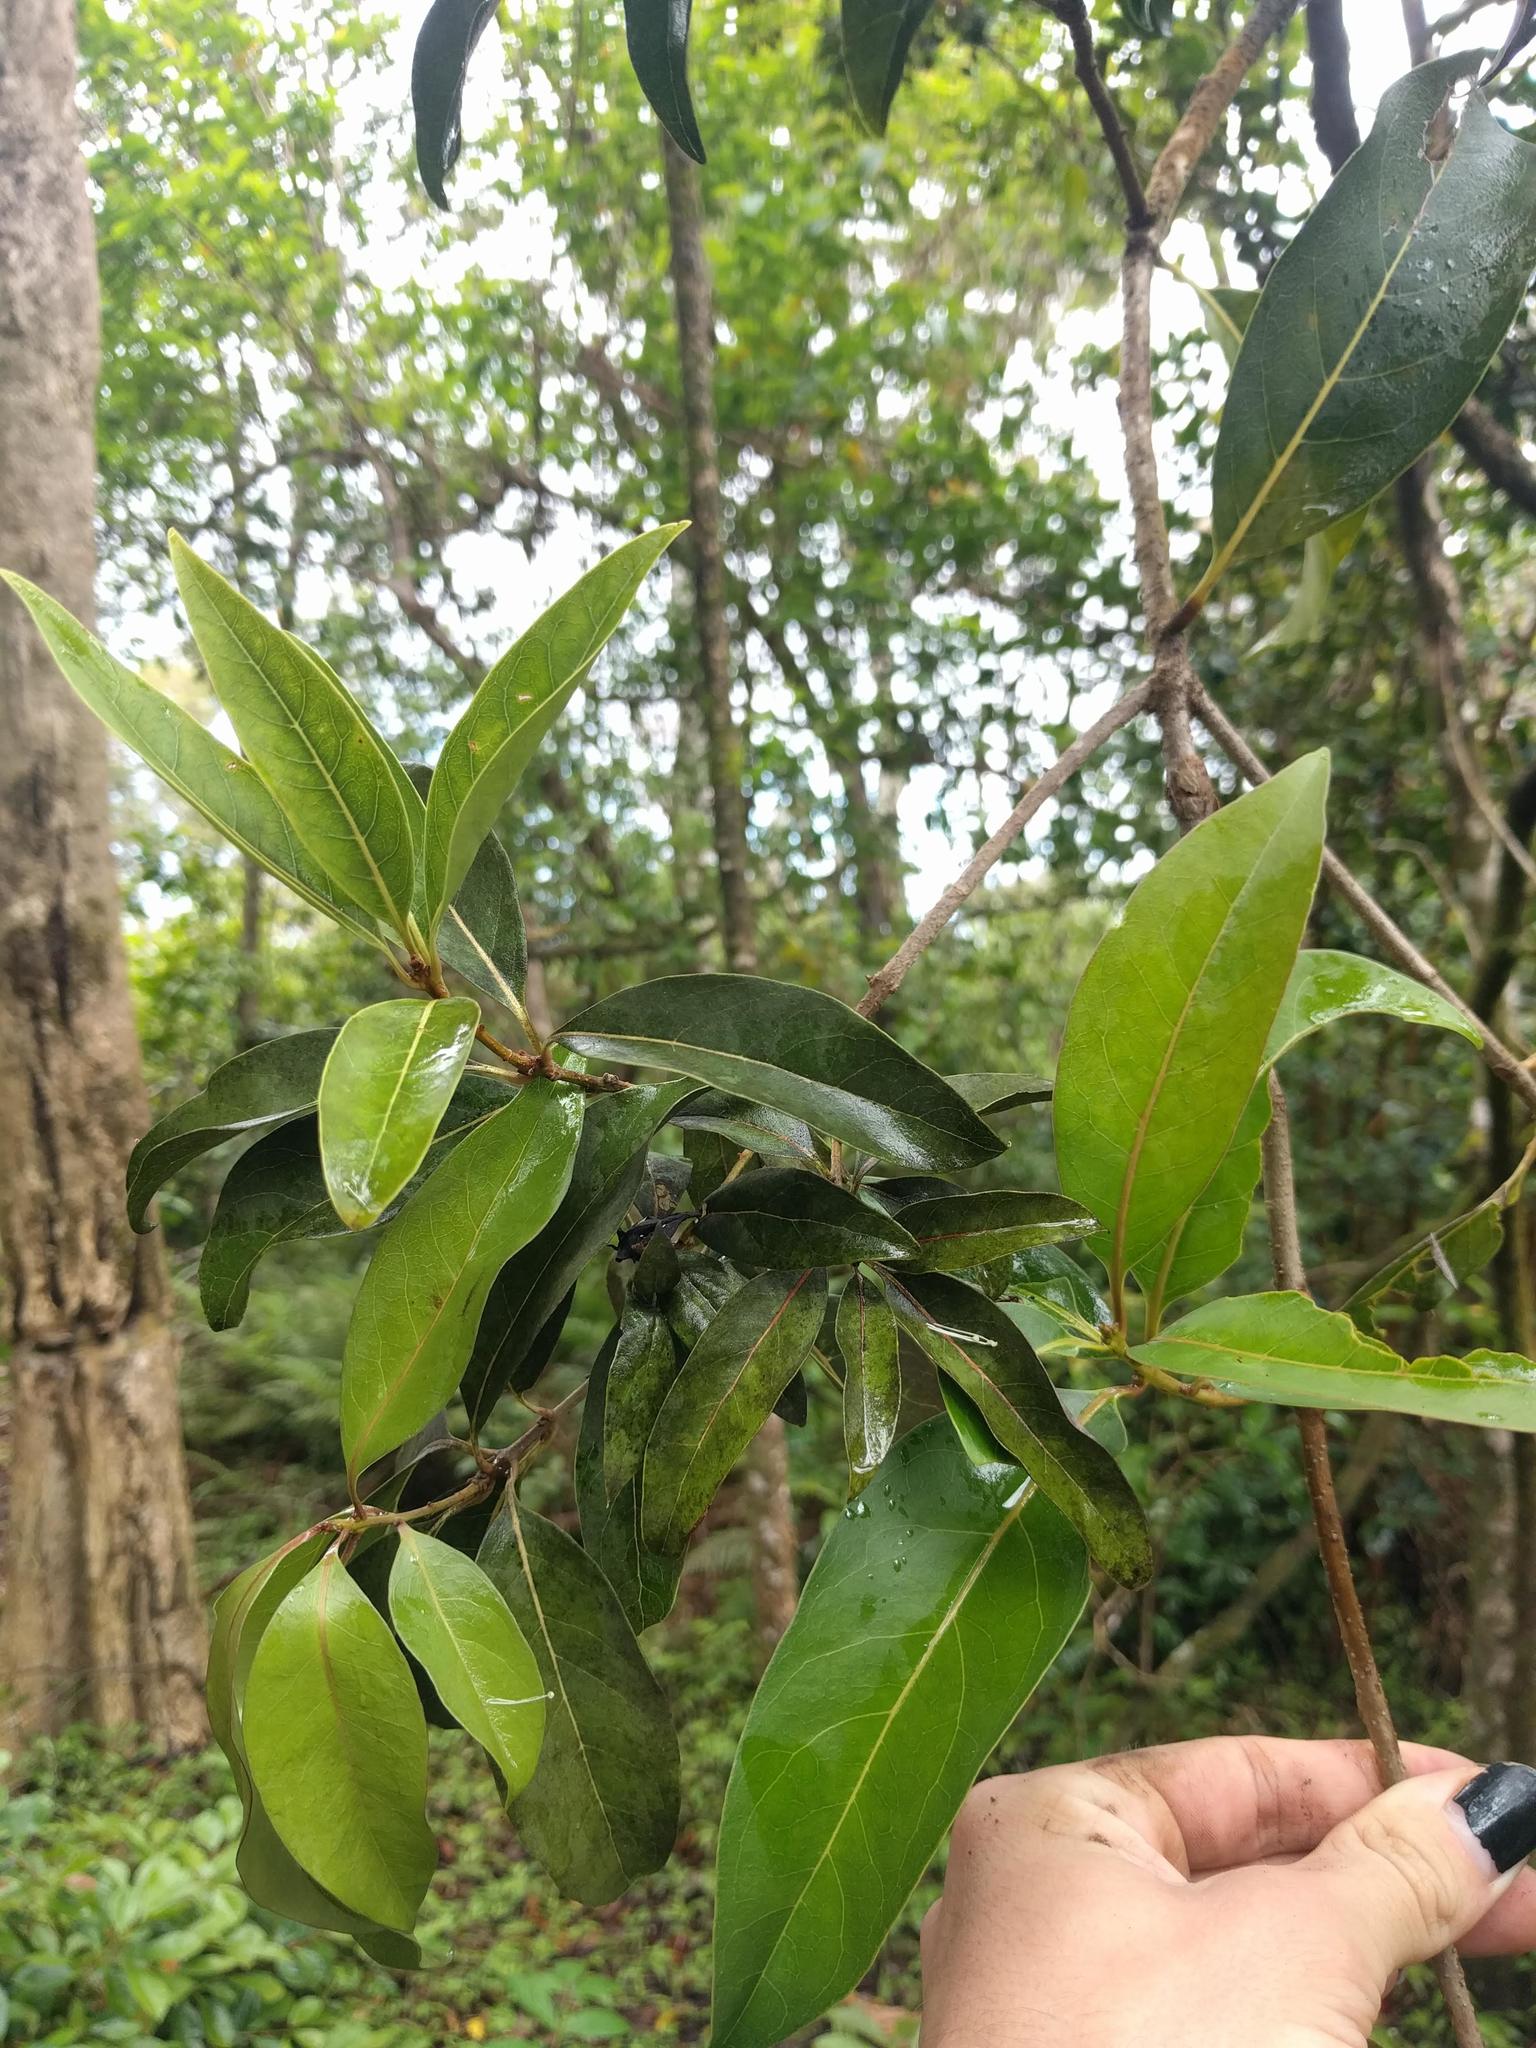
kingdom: Plantae
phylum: Tracheophyta
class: Magnoliopsida
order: Lamiales
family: Oleaceae
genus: Nestegis
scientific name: Nestegis sandwicensis
